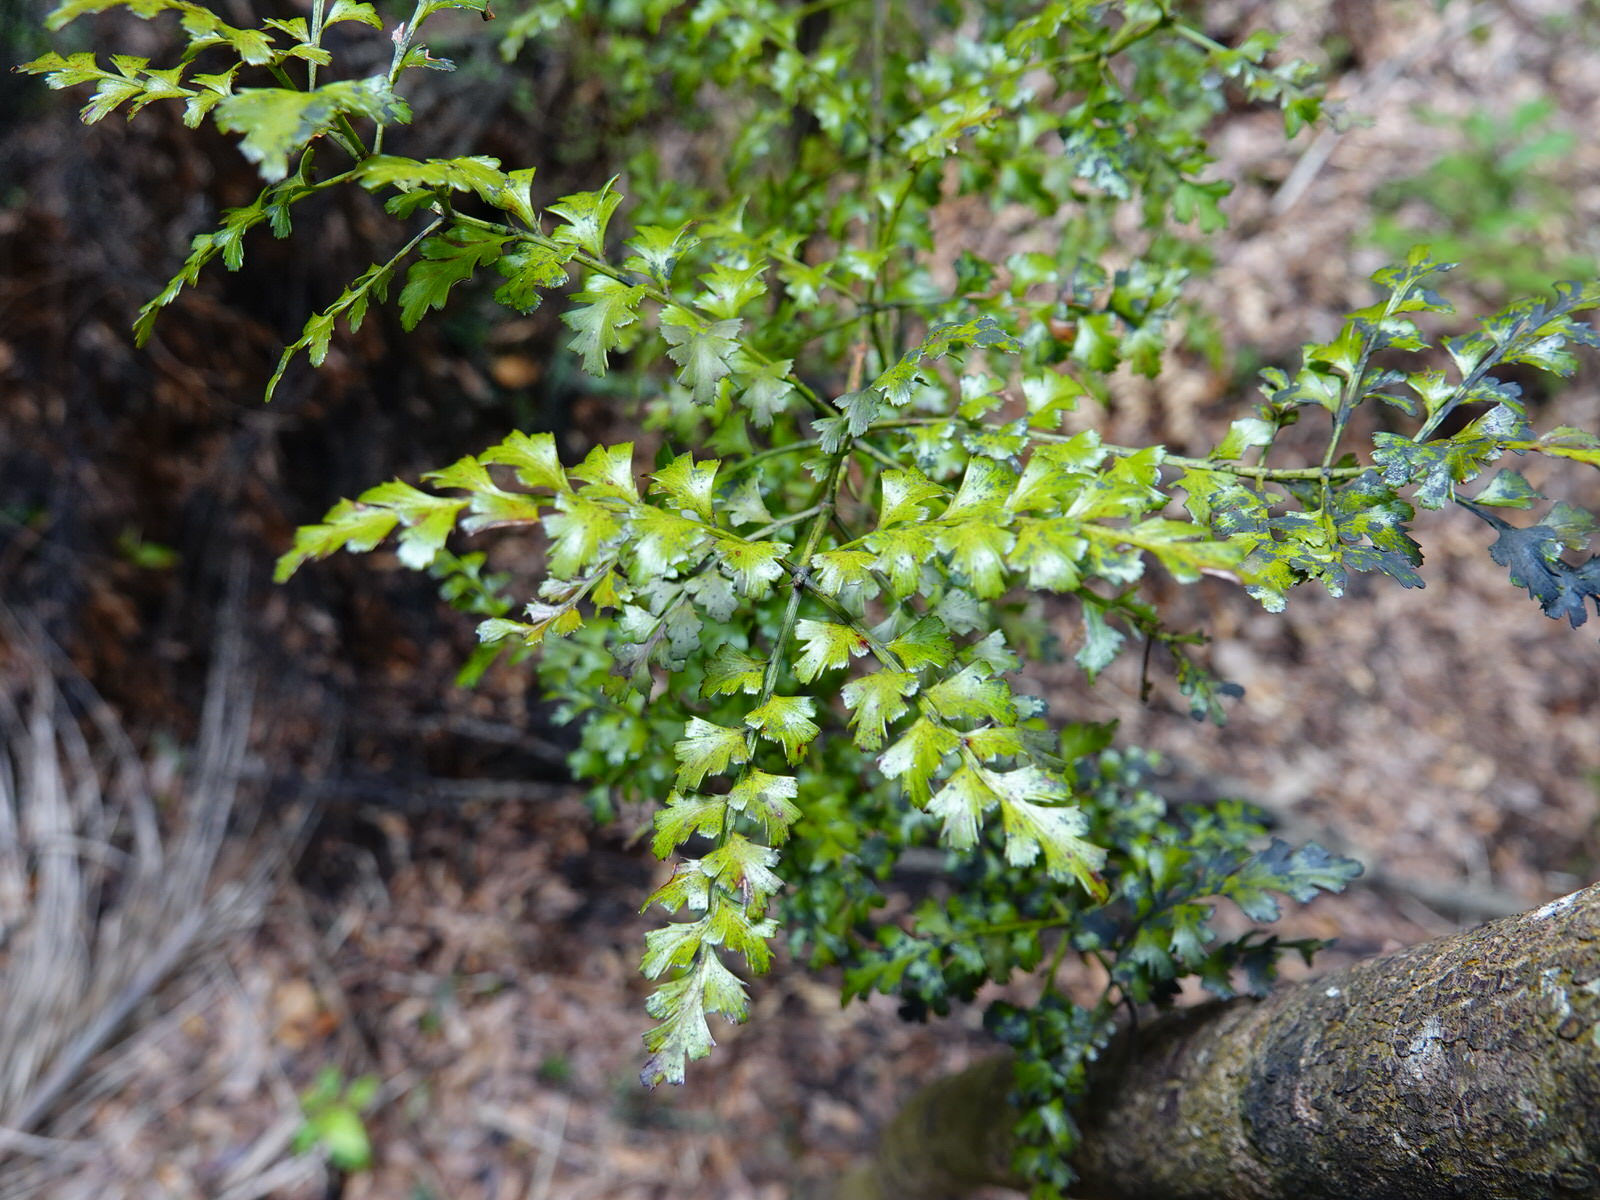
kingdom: Plantae
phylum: Tracheophyta
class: Pinopsida
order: Pinales
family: Phyllocladaceae
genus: Phyllocladus
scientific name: Phyllocladus trichomanoides
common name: Celery pine
